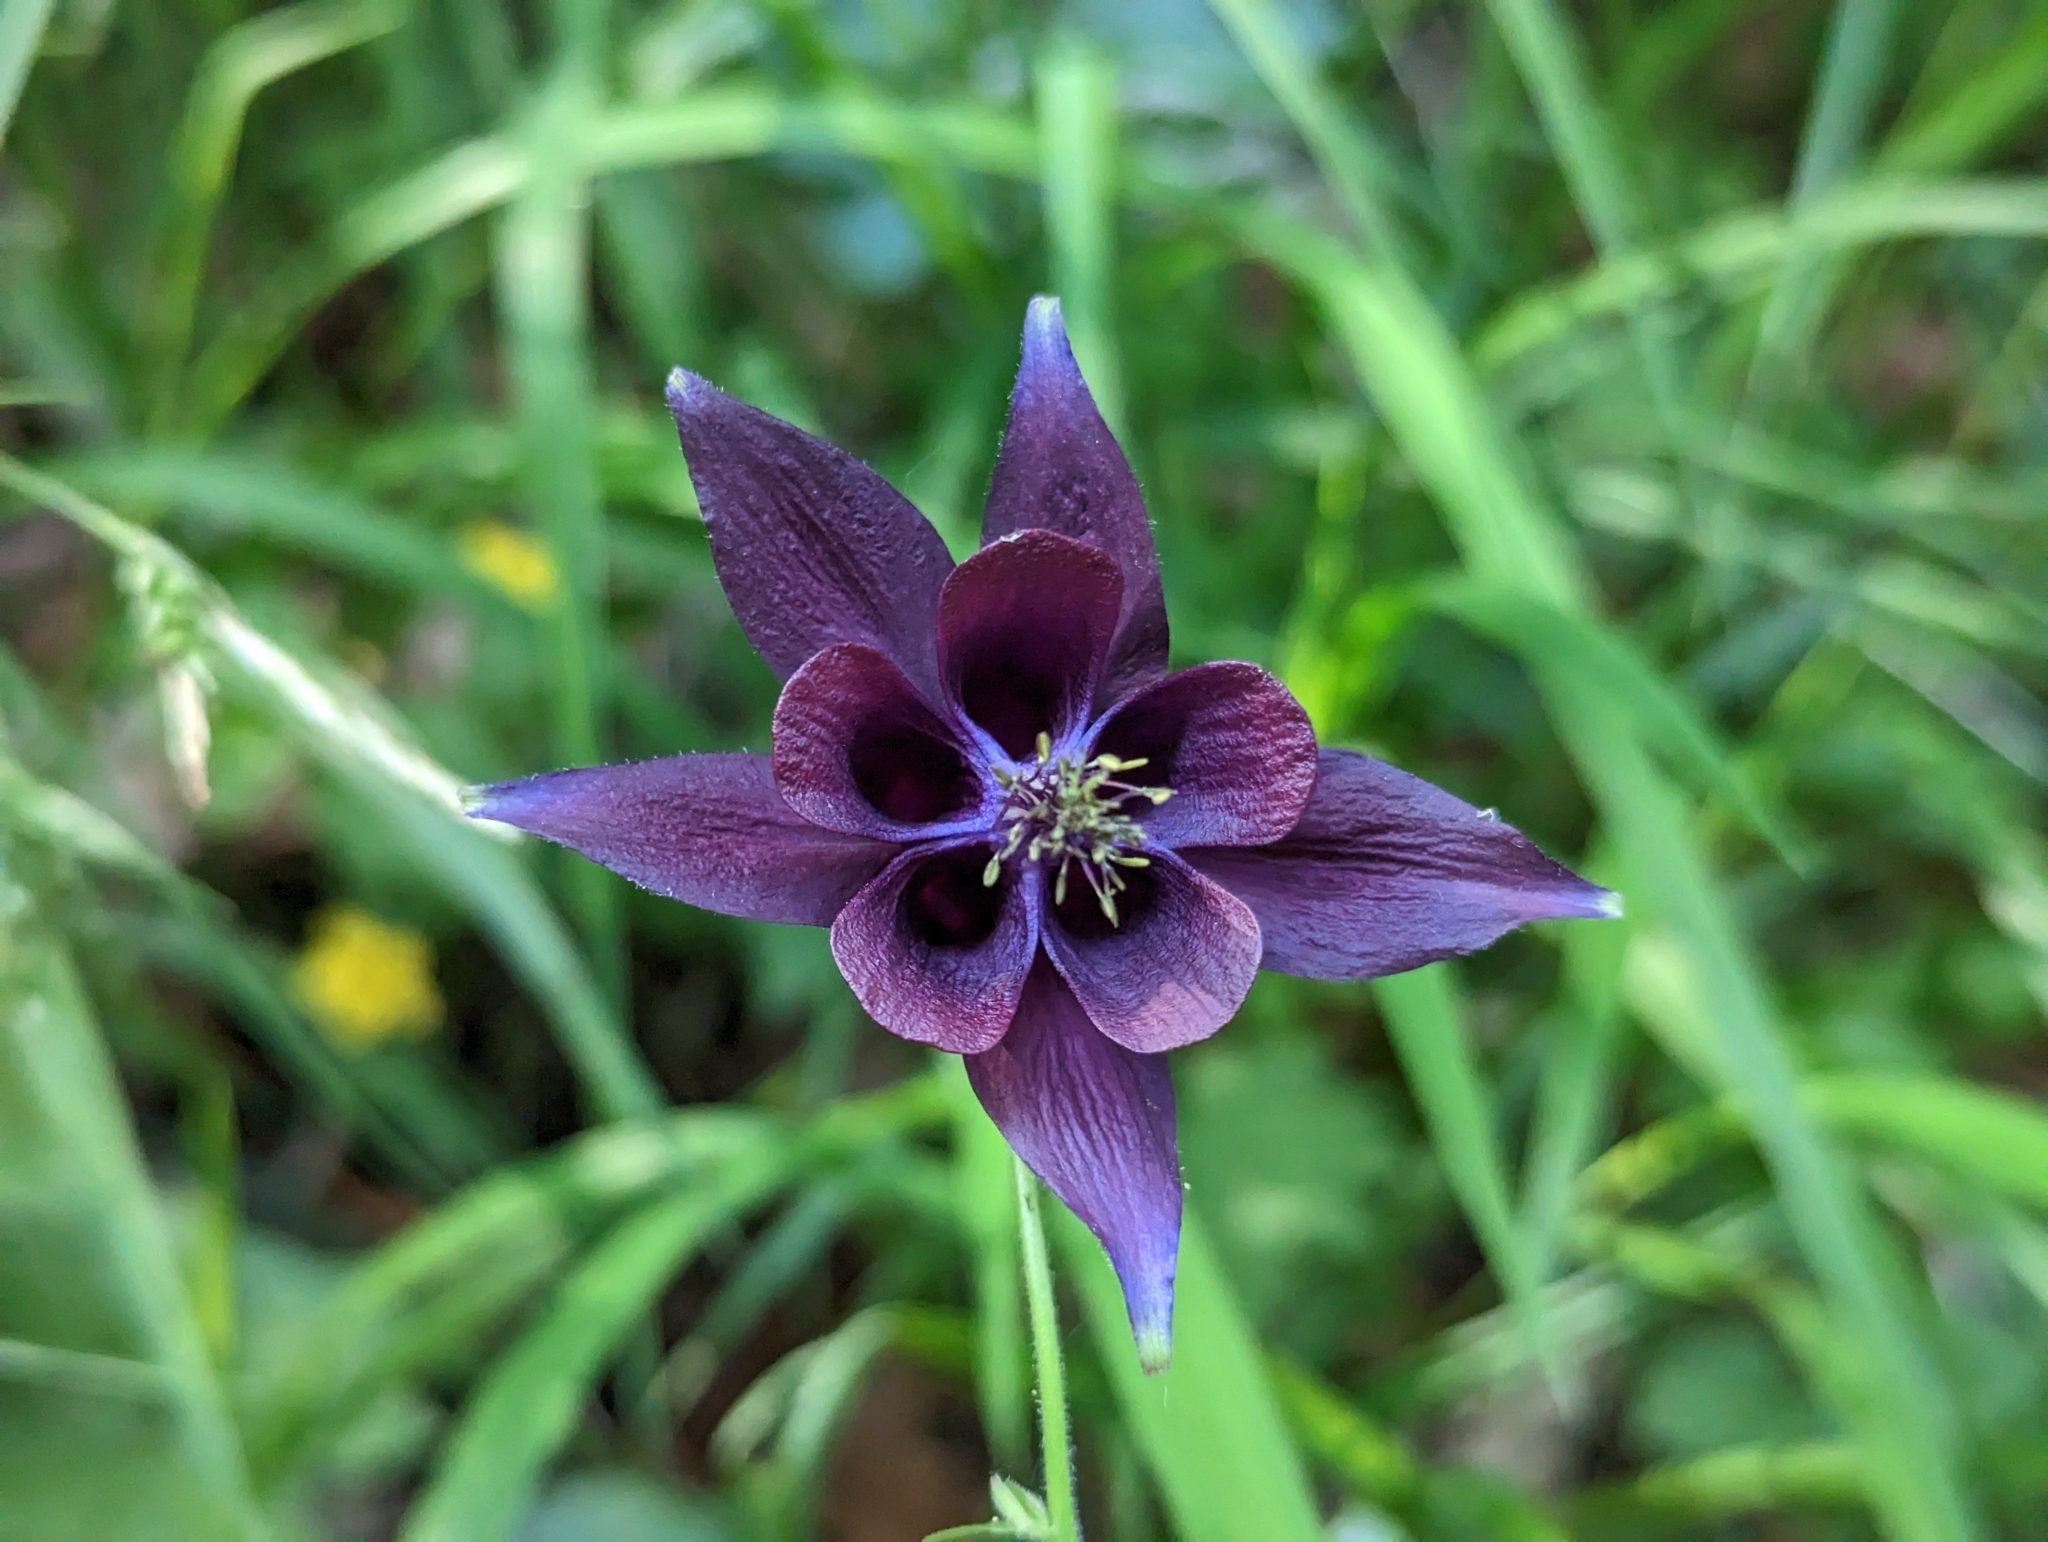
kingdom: Plantae
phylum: Tracheophyta
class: Magnoliopsida
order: Ranunculales
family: Ranunculaceae
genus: Aquilegia
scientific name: Aquilegia atrata
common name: Dark columbine
